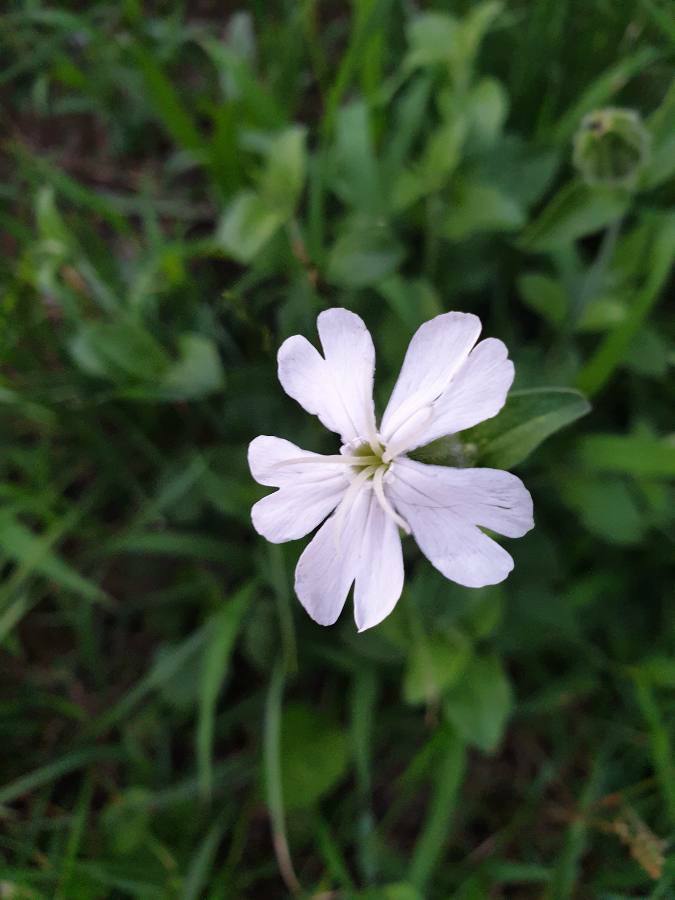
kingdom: Plantae
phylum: Tracheophyta
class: Magnoliopsida
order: Caryophyllales
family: Caryophyllaceae
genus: Silene
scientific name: Silene latifolia
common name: White campion
